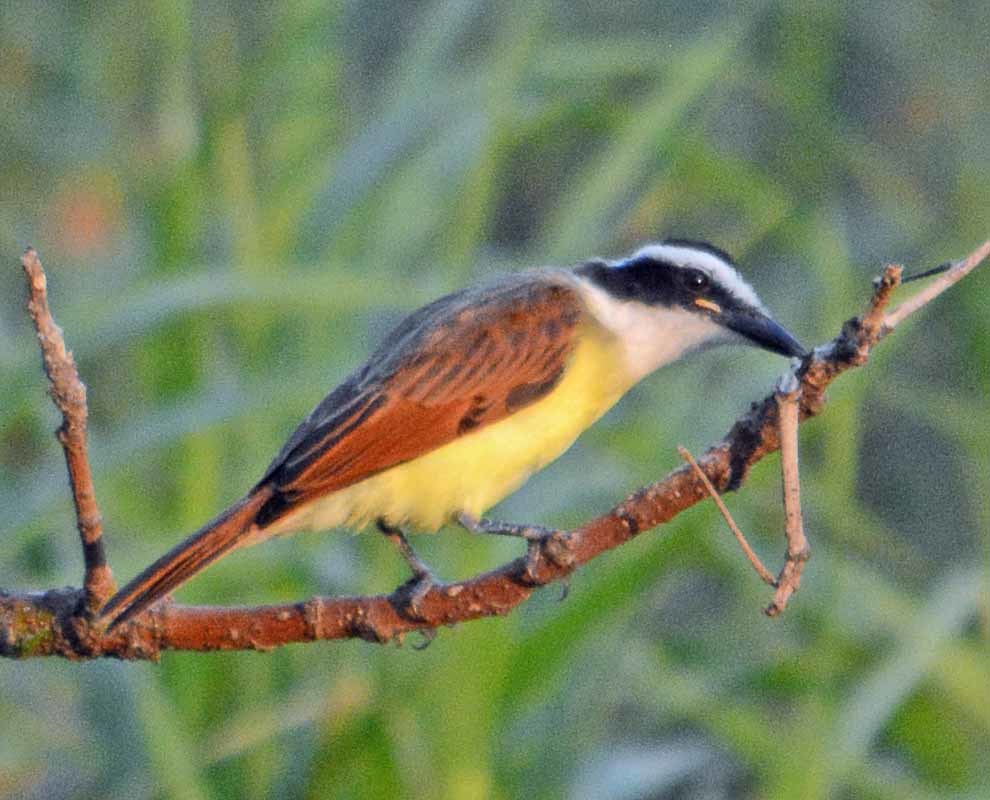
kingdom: Animalia
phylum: Chordata
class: Aves
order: Passeriformes
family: Tyrannidae
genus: Pitangus
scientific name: Pitangus sulphuratus
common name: Great kiskadee
